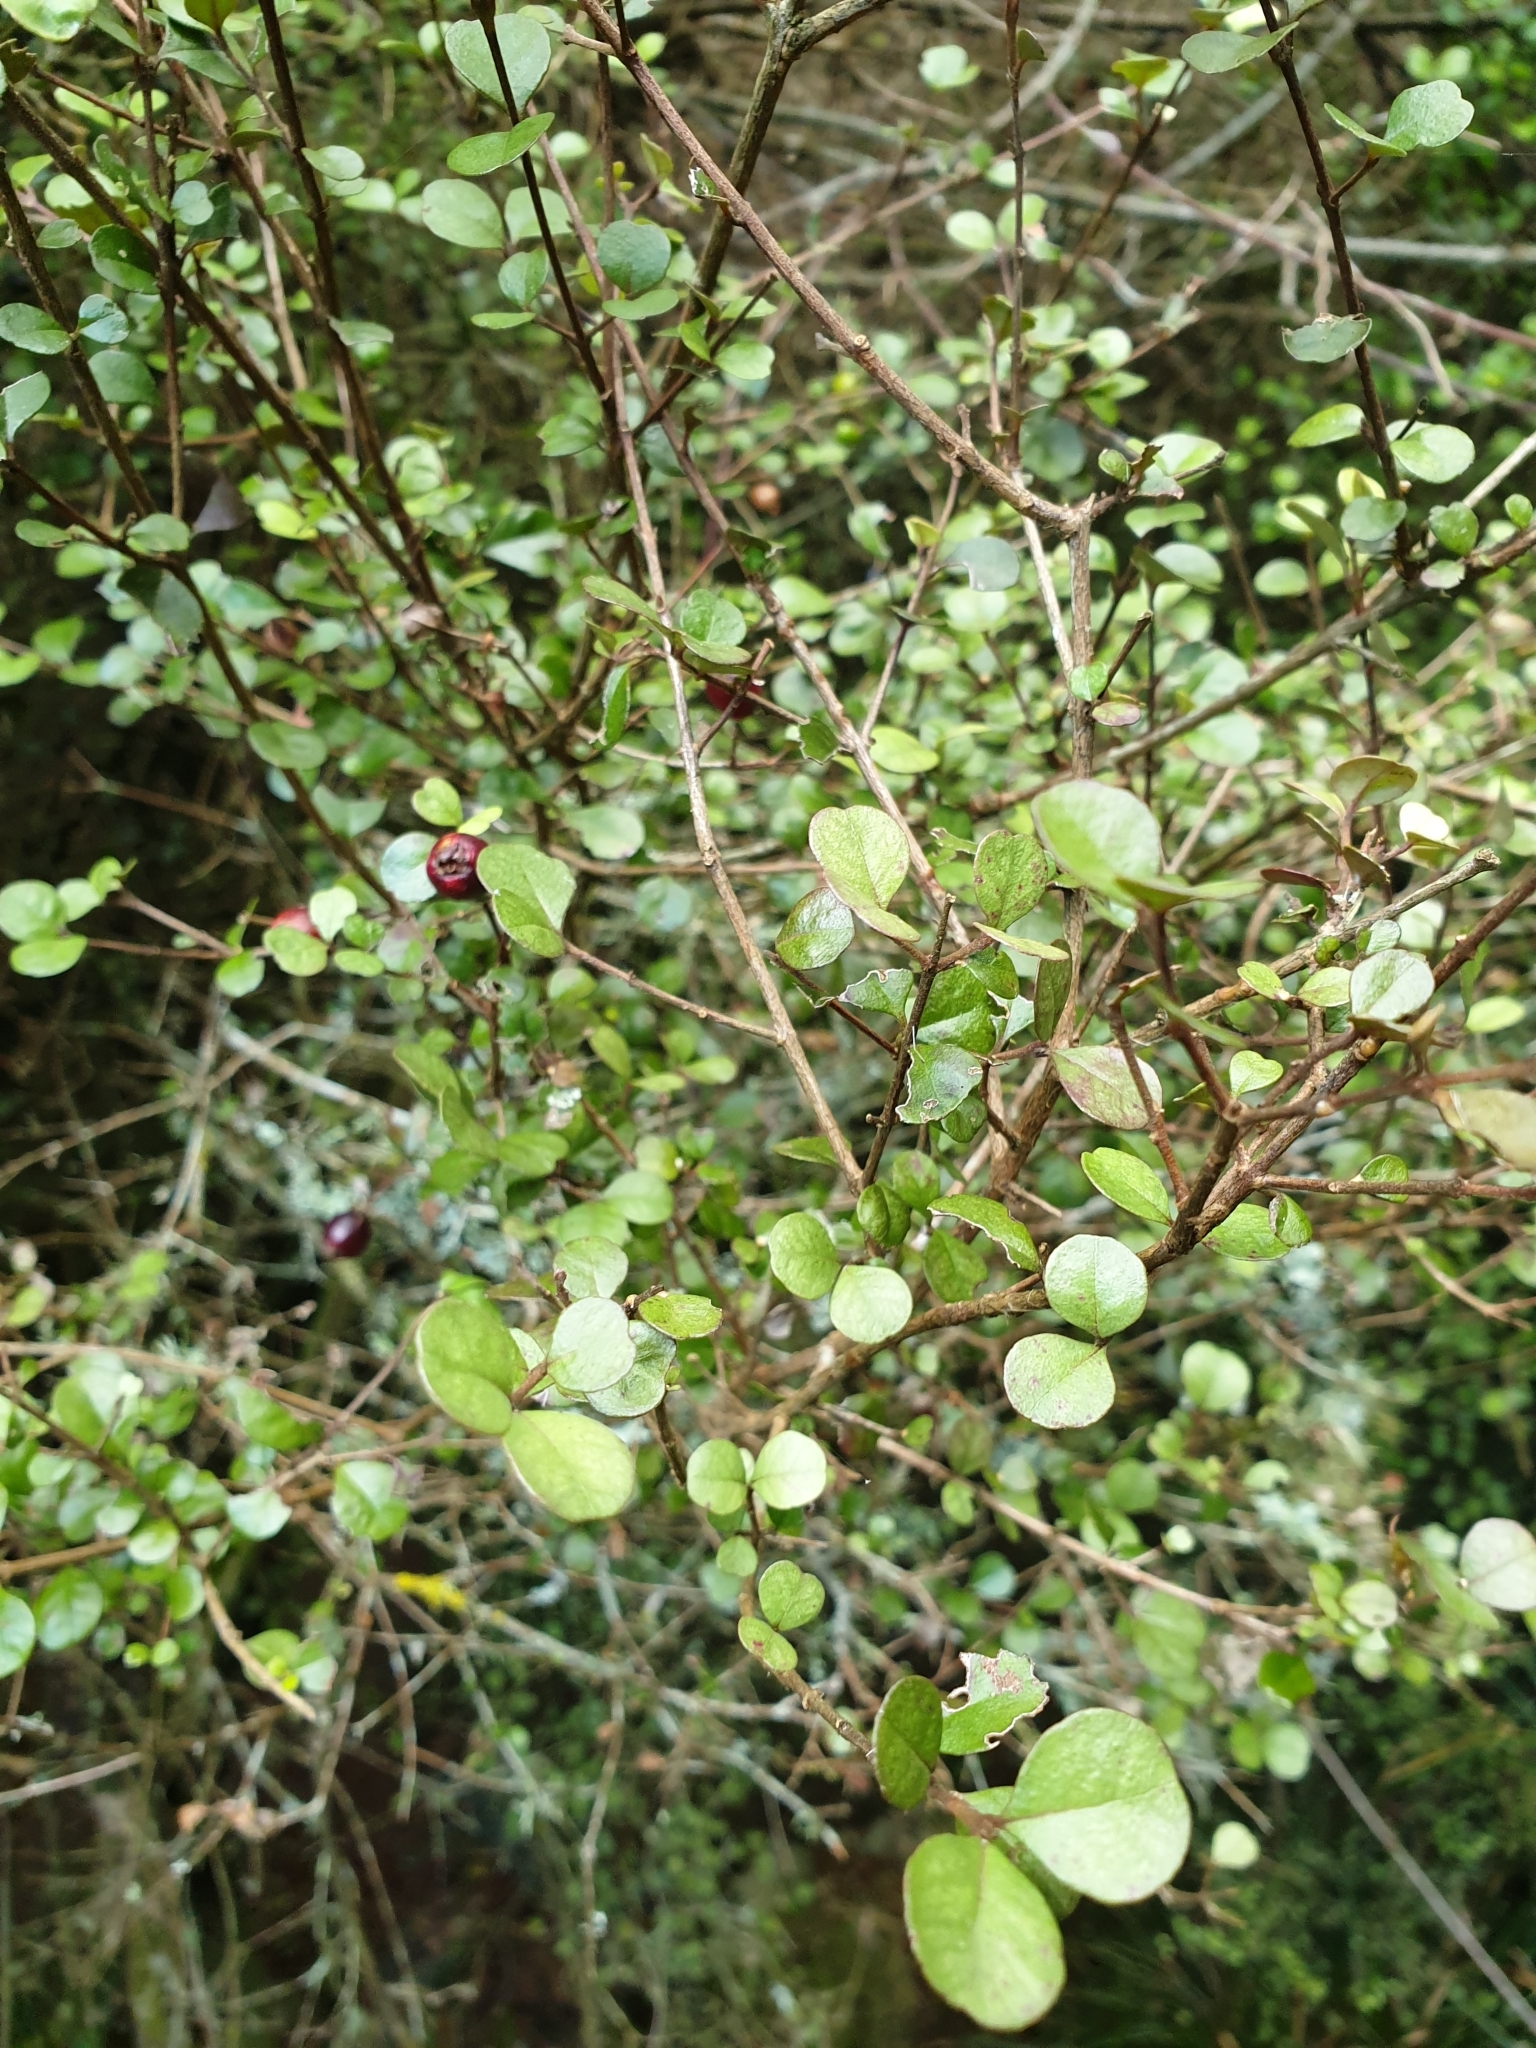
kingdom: Plantae
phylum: Tracheophyta
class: Magnoliopsida
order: Myrtales
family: Myrtaceae
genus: Lophomyrtus
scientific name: Lophomyrtus obcordata
